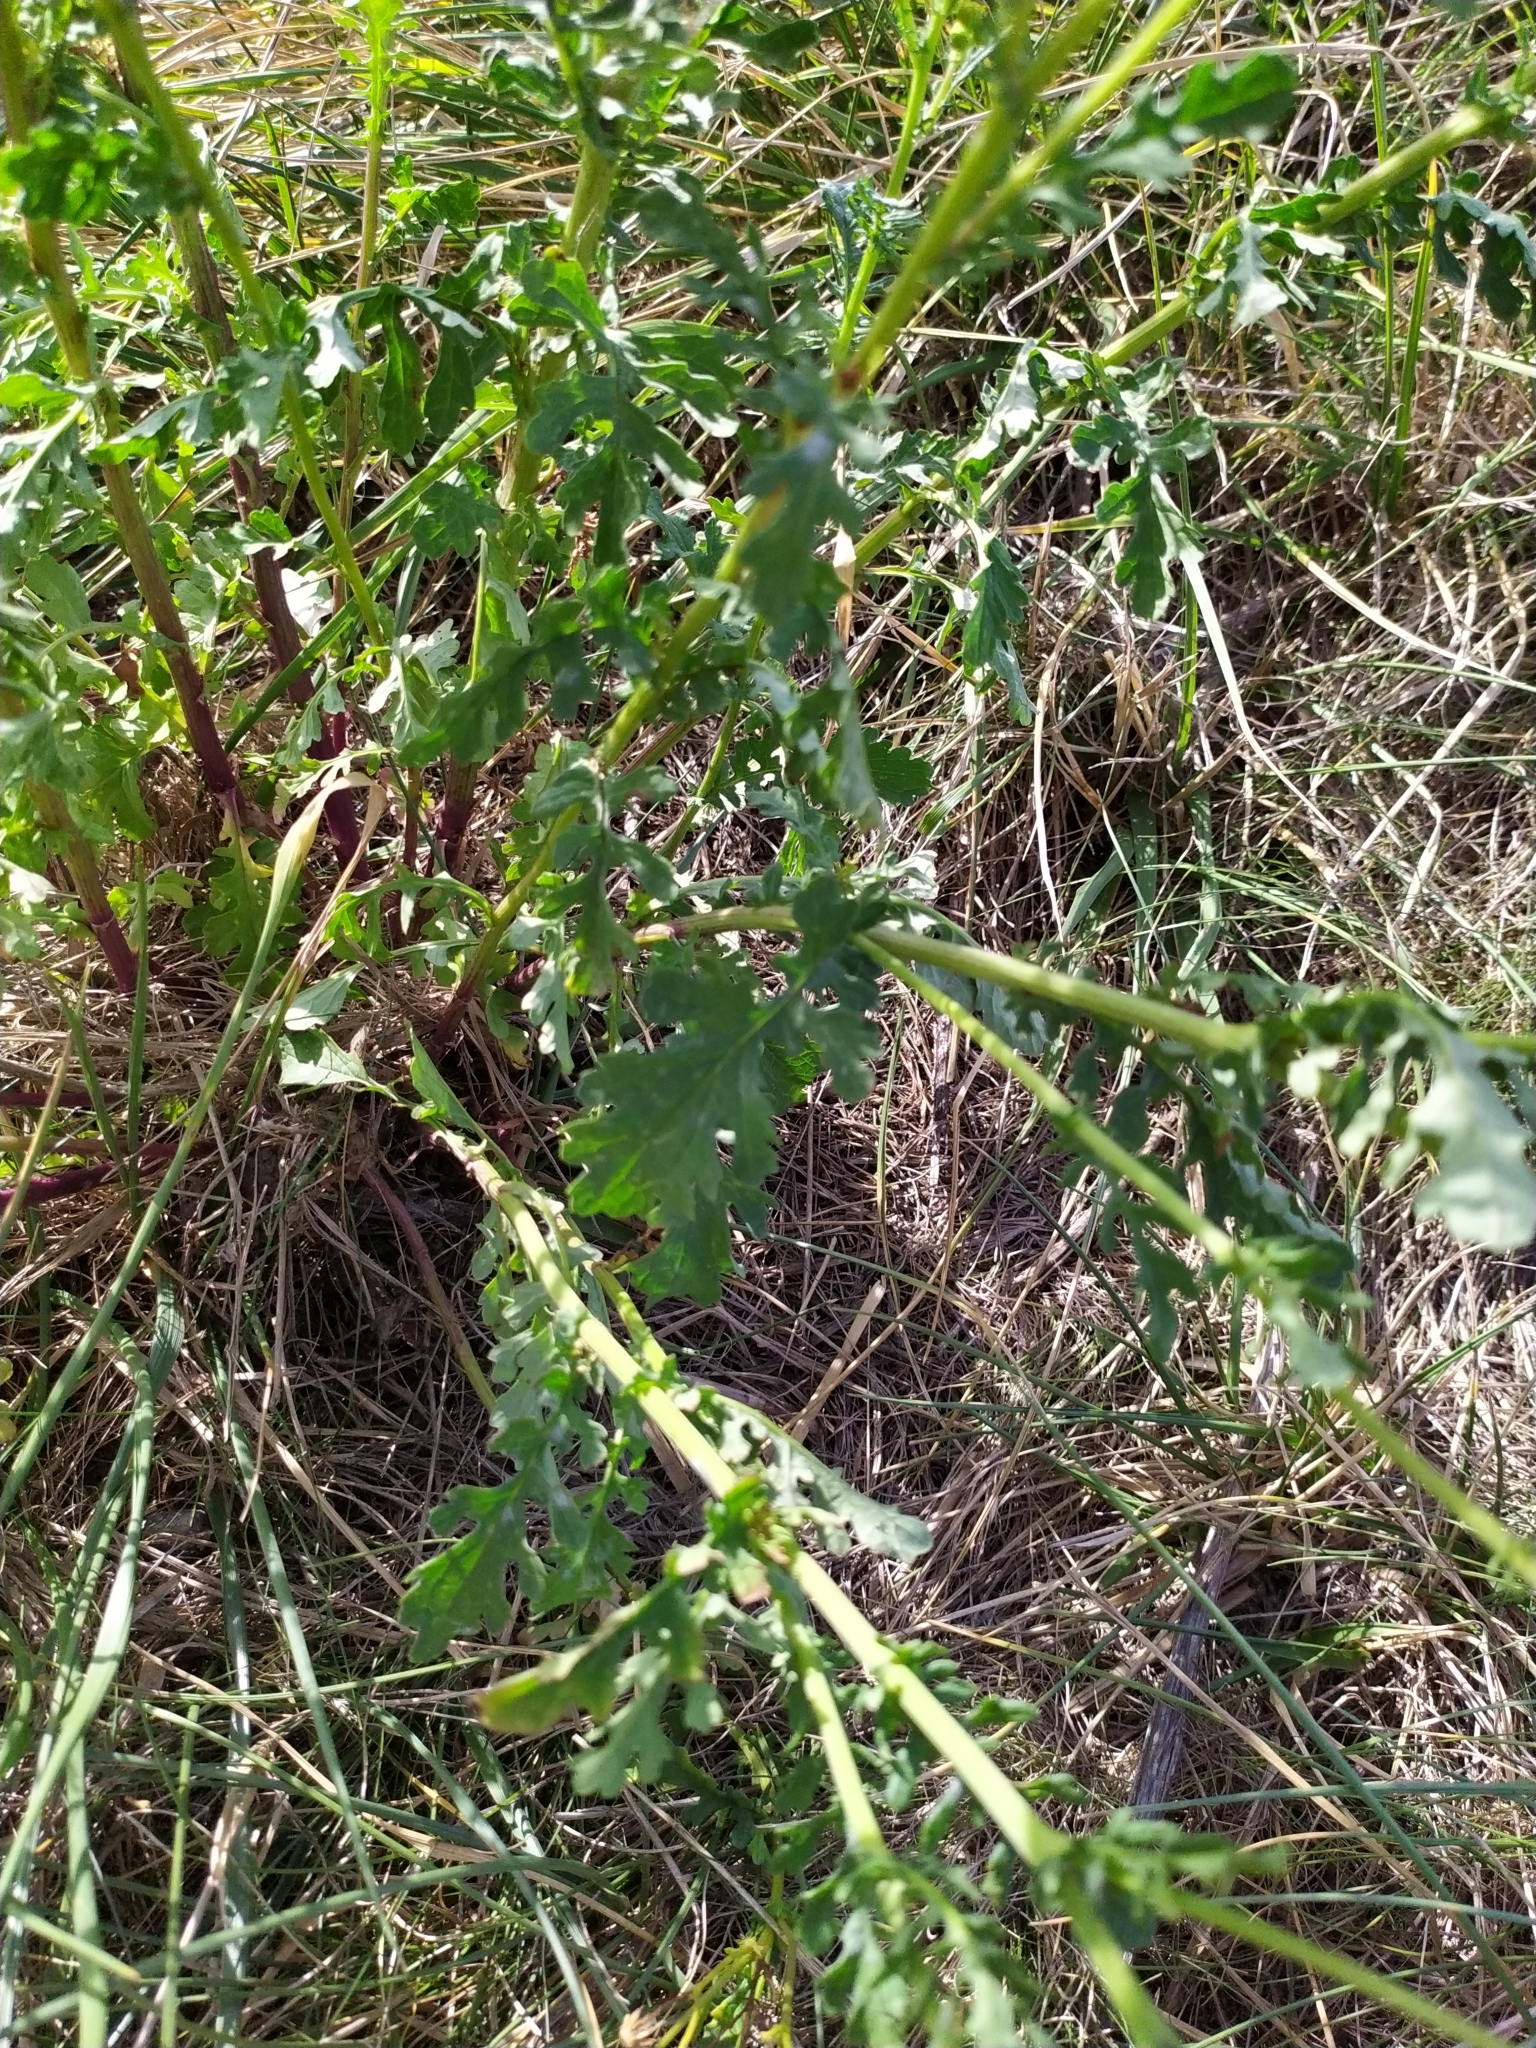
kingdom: Plantae
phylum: Tracheophyta
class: Magnoliopsida
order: Asterales
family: Asteraceae
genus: Jacobaea
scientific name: Jacobaea vulgaris
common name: Stinking willie
